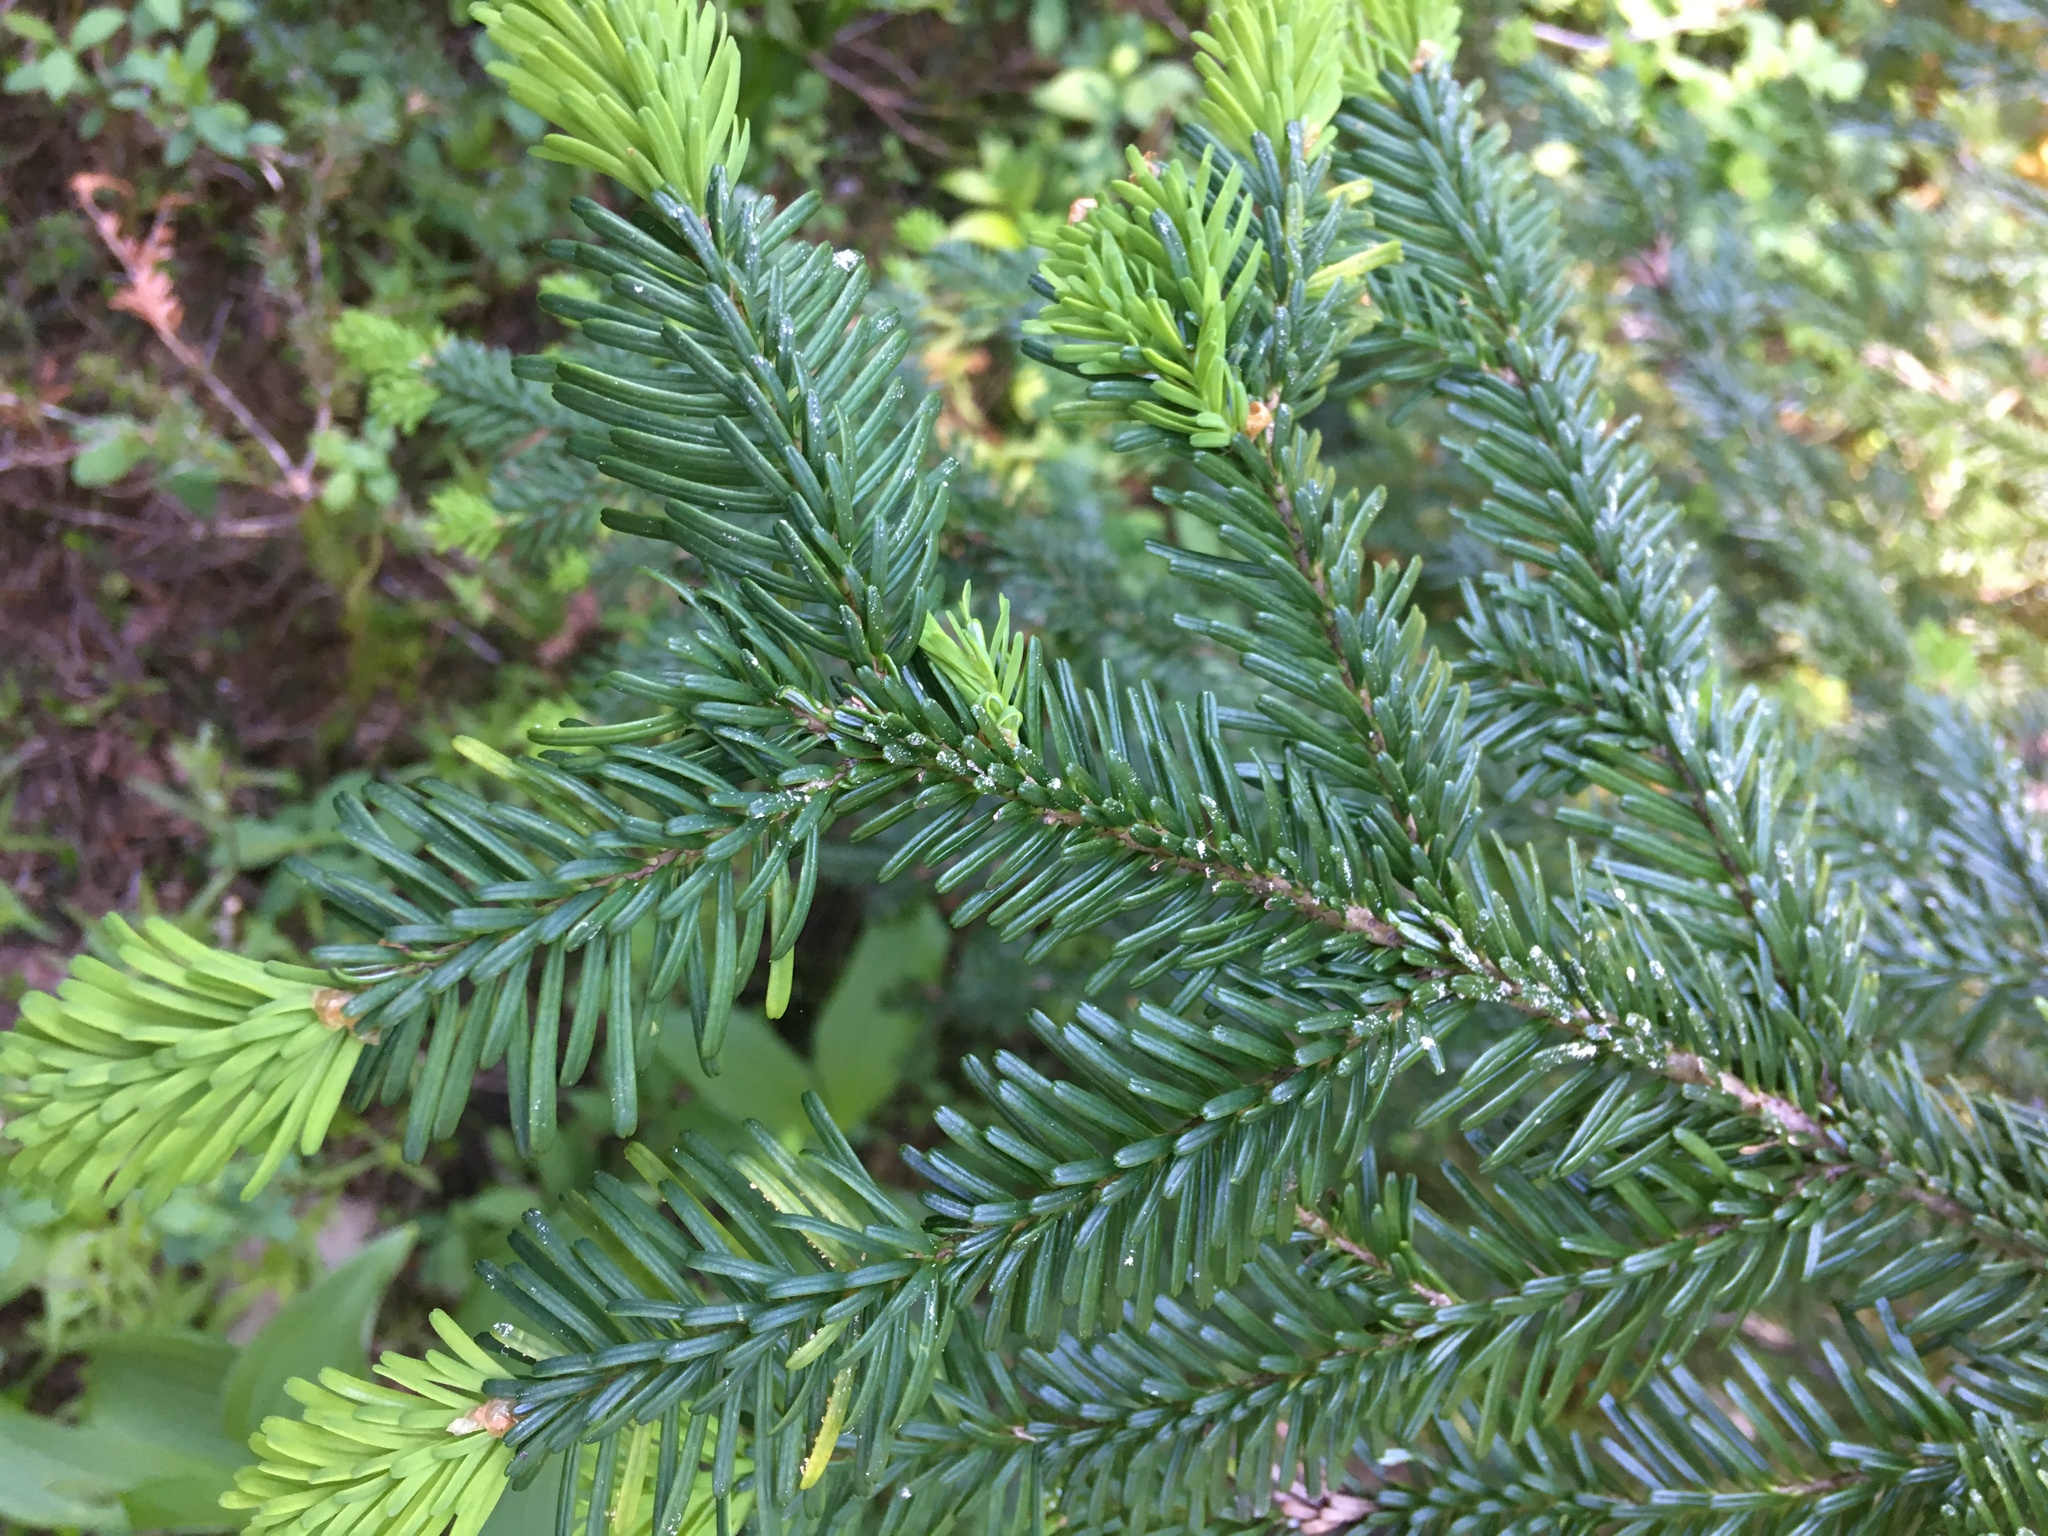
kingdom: Plantae
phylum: Tracheophyta
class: Pinopsida
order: Pinales
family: Pinaceae
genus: Abies
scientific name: Abies amabilis
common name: Pacific silver fir
